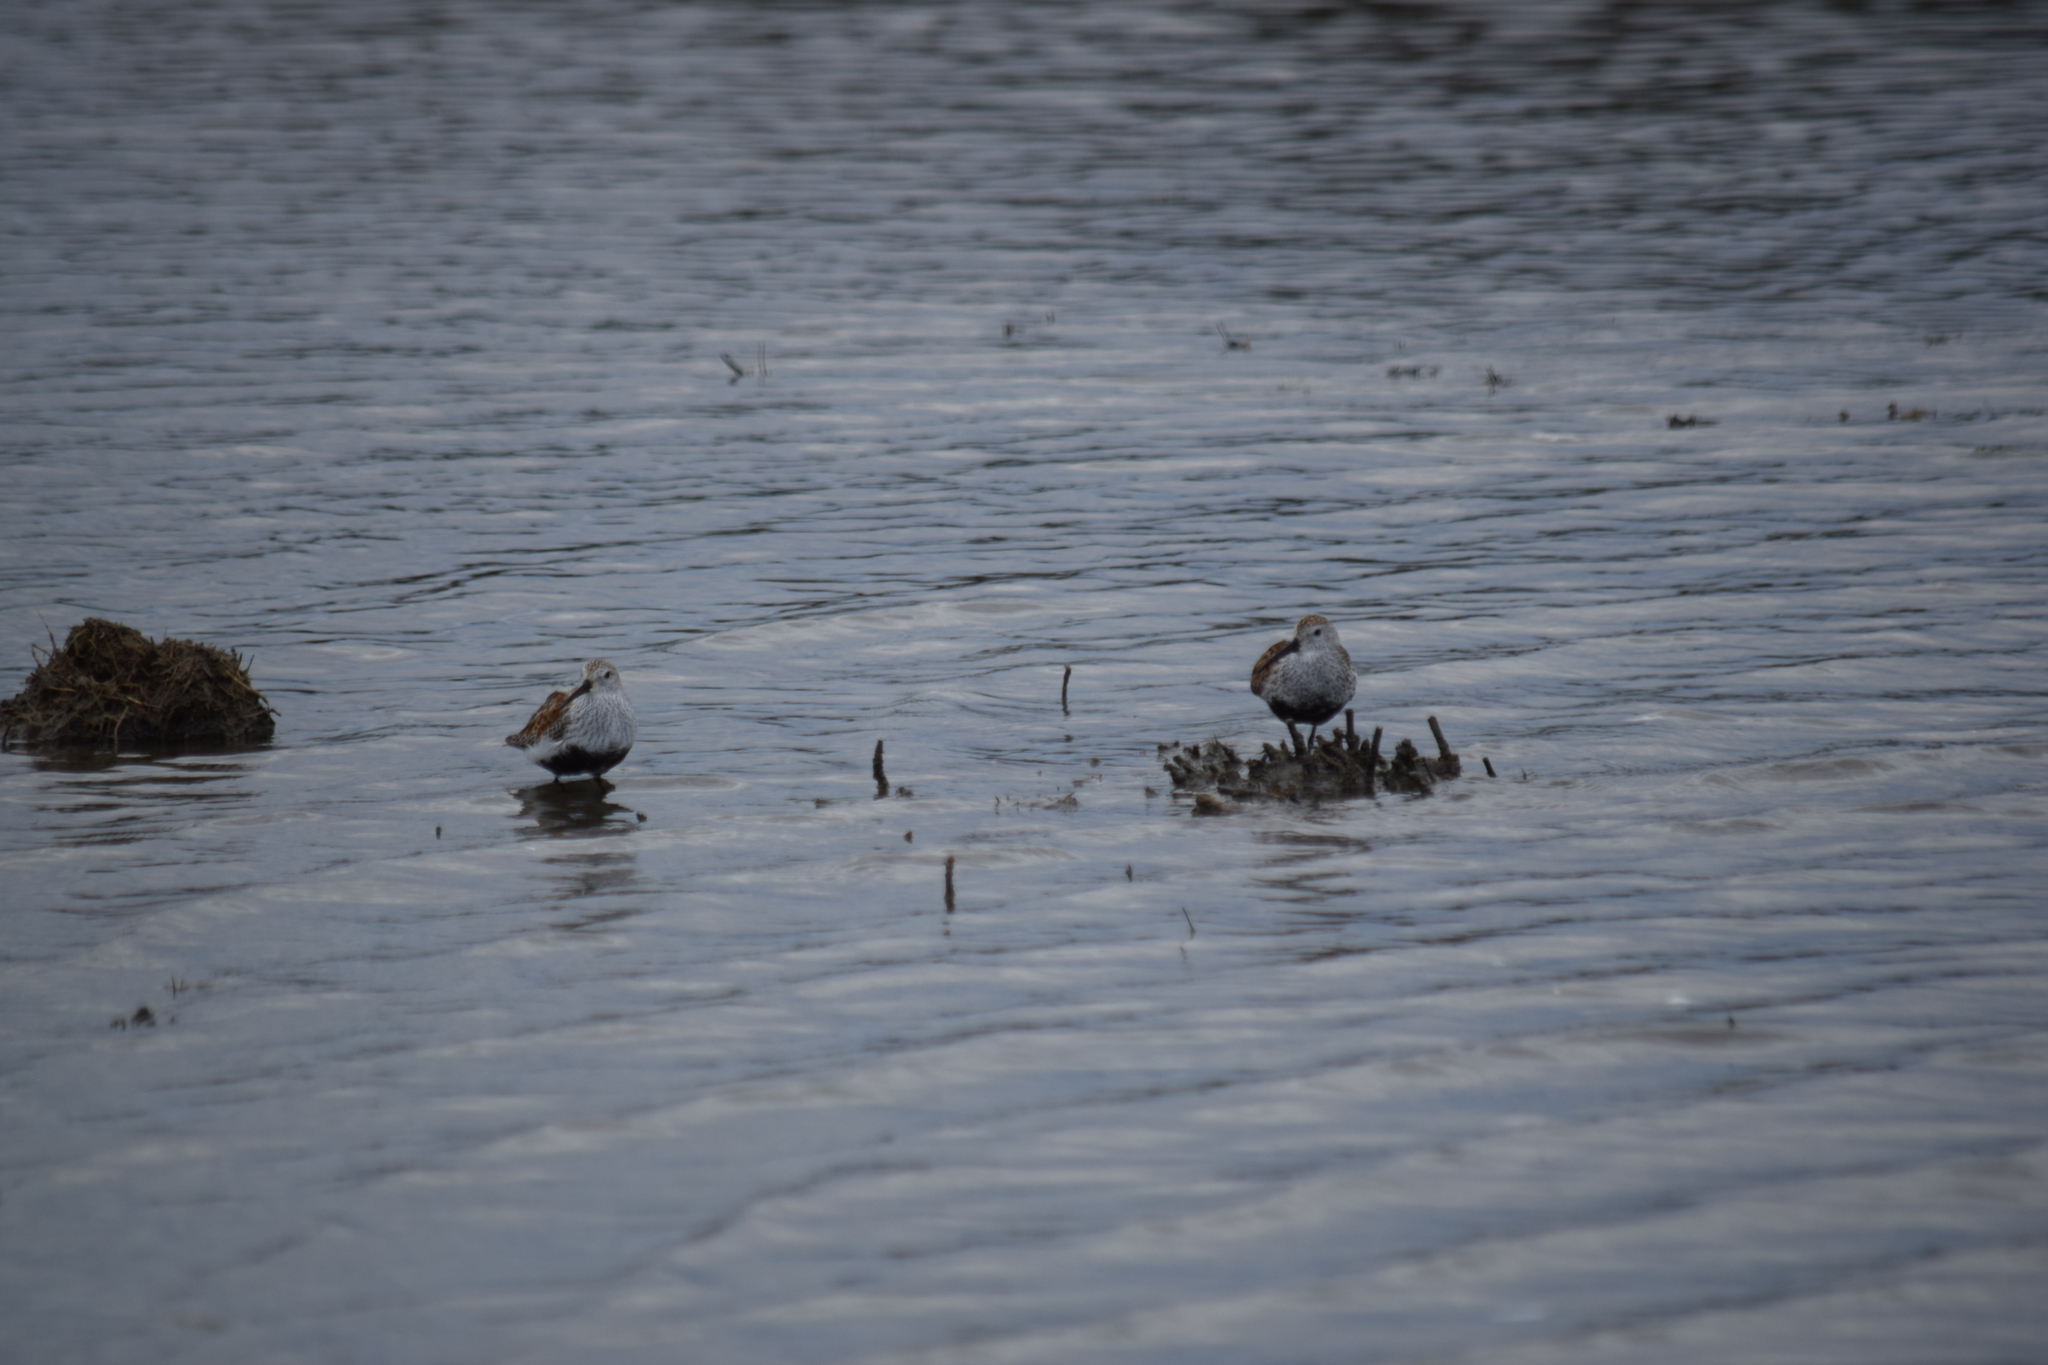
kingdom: Animalia
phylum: Chordata
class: Aves
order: Charadriiformes
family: Scolopacidae
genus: Calidris
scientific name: Calidris alpina
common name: Dunlin
